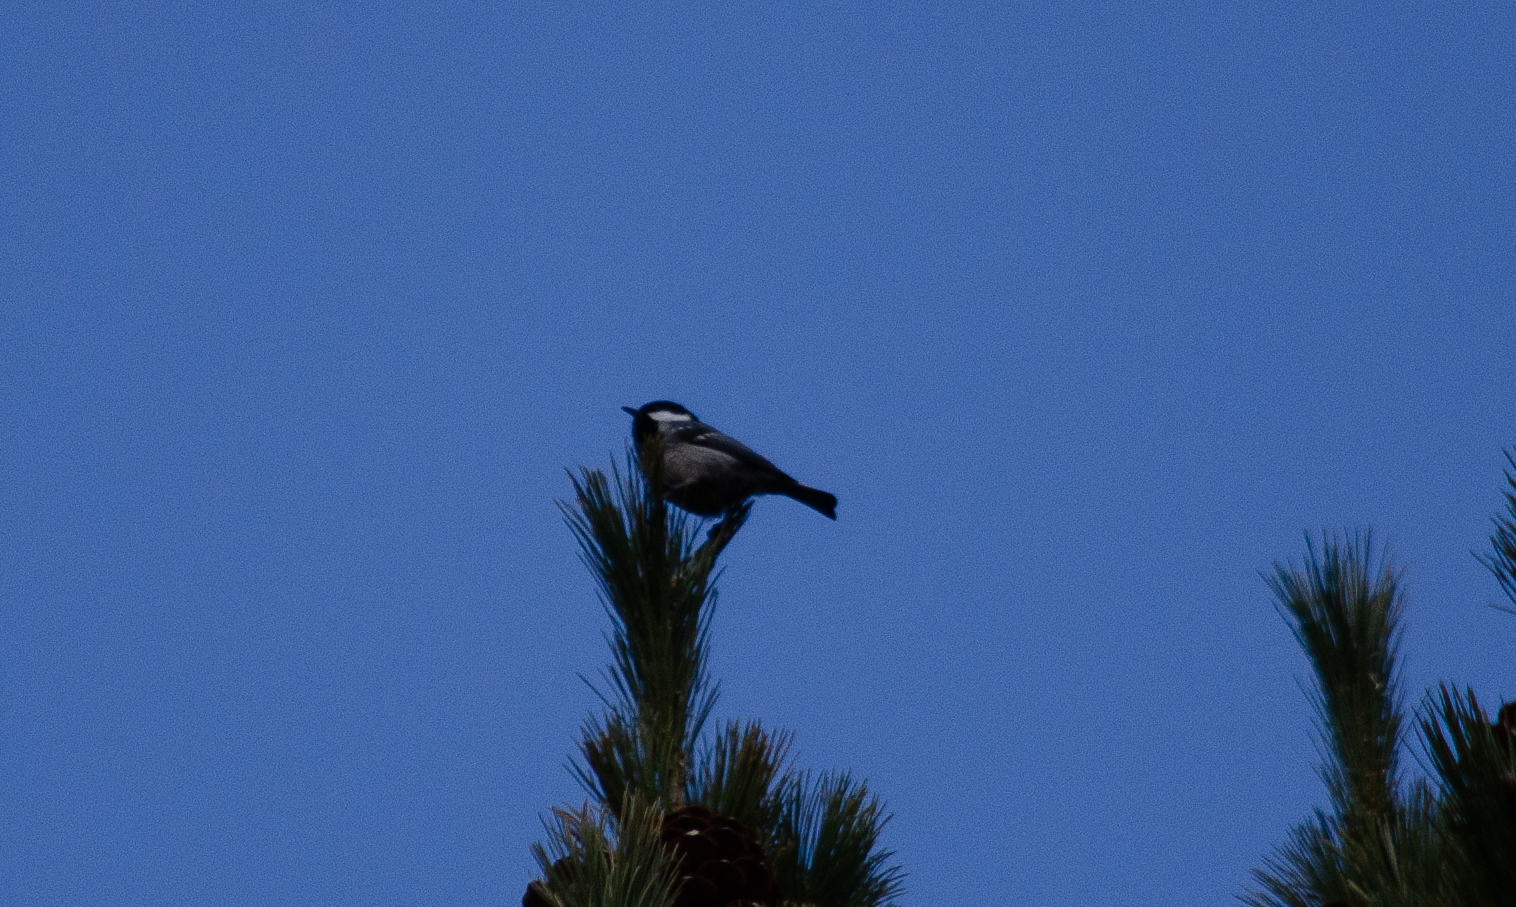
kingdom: Animalia
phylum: Chordata
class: Aves
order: Passeriformes
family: Paridae
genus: Periparus
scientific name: Periparus ater
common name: Coal tit
